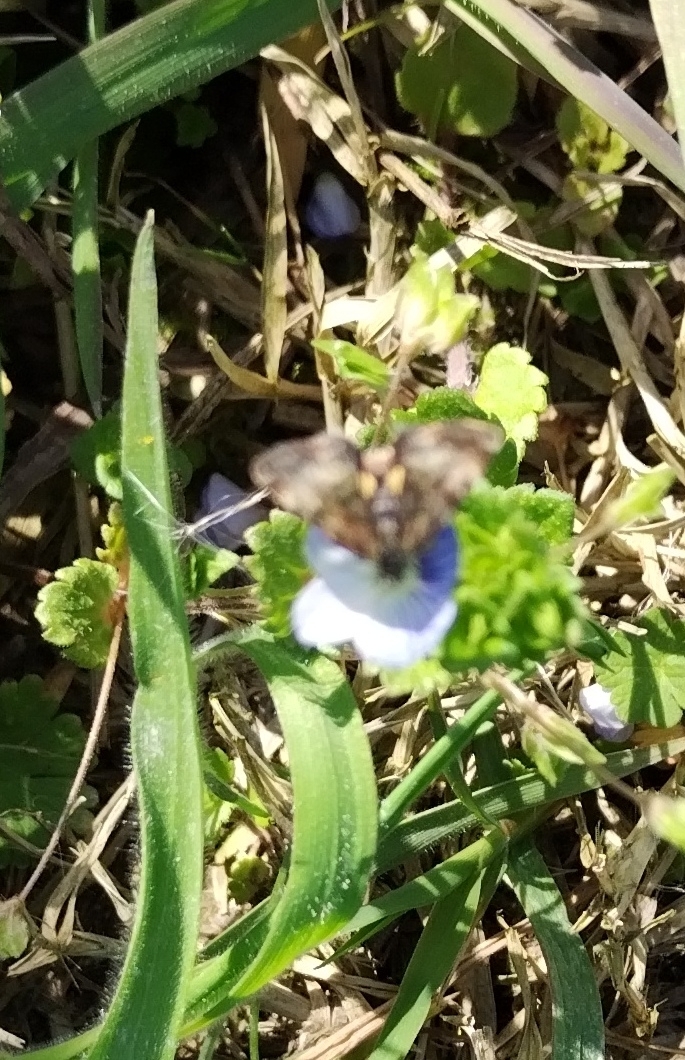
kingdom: Animalia
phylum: Arthropoda
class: Insecta
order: Lepidoptera
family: Noctuidae
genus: Panemeria
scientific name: Panemeria tenebrata
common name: Small yellow underwing
